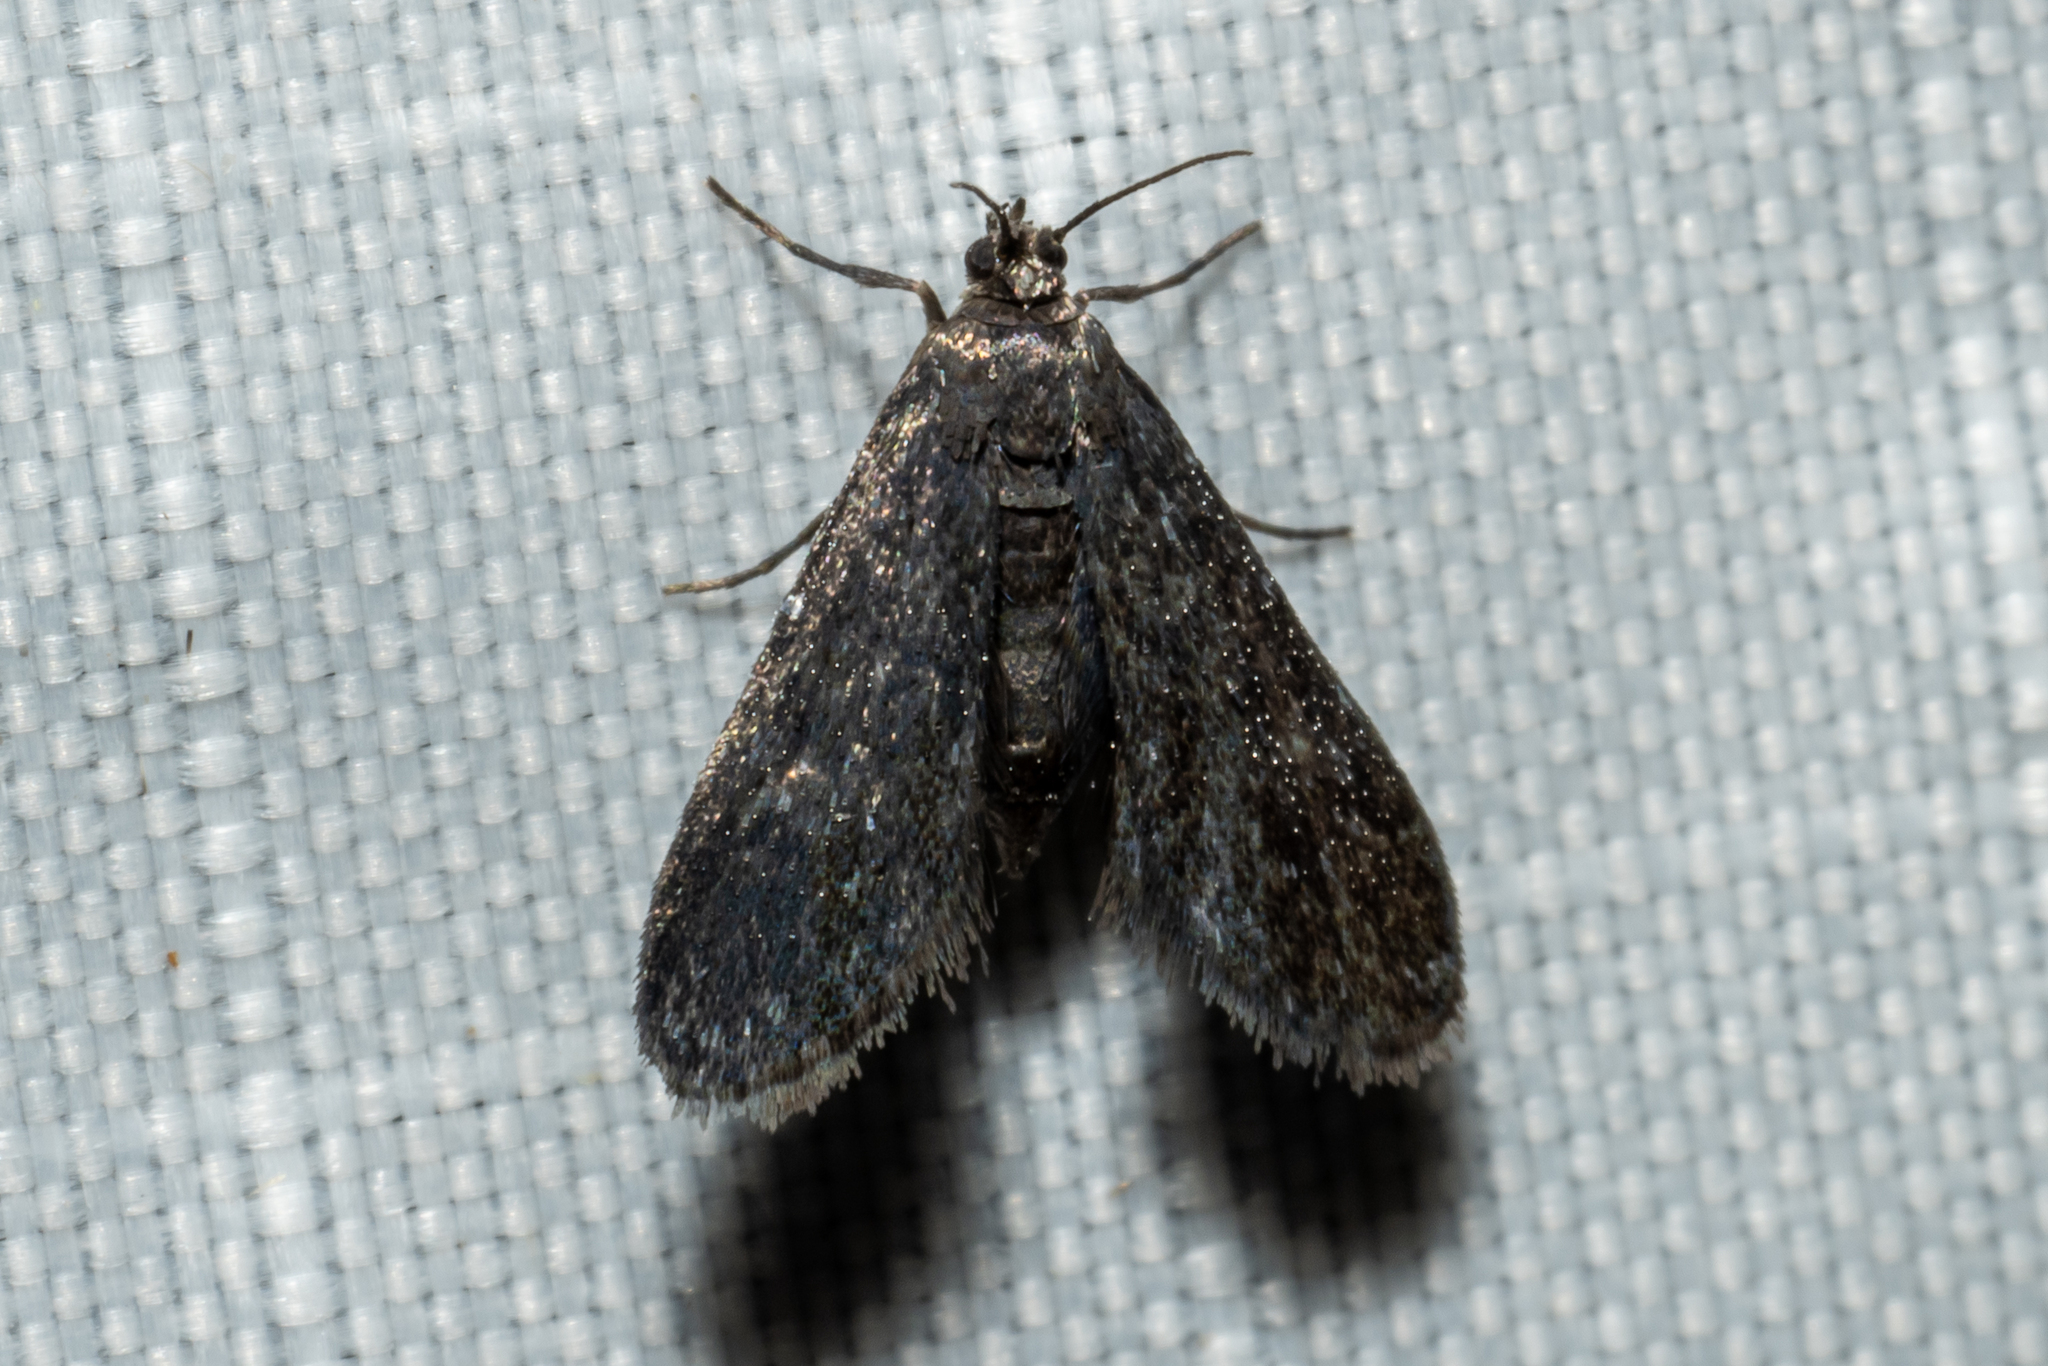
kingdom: Animalia
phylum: Arthropoda
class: Insecta
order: Lepidoptera
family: Crambidae
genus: Elophila
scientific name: Elophila tinealis
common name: Black duckweed moth
